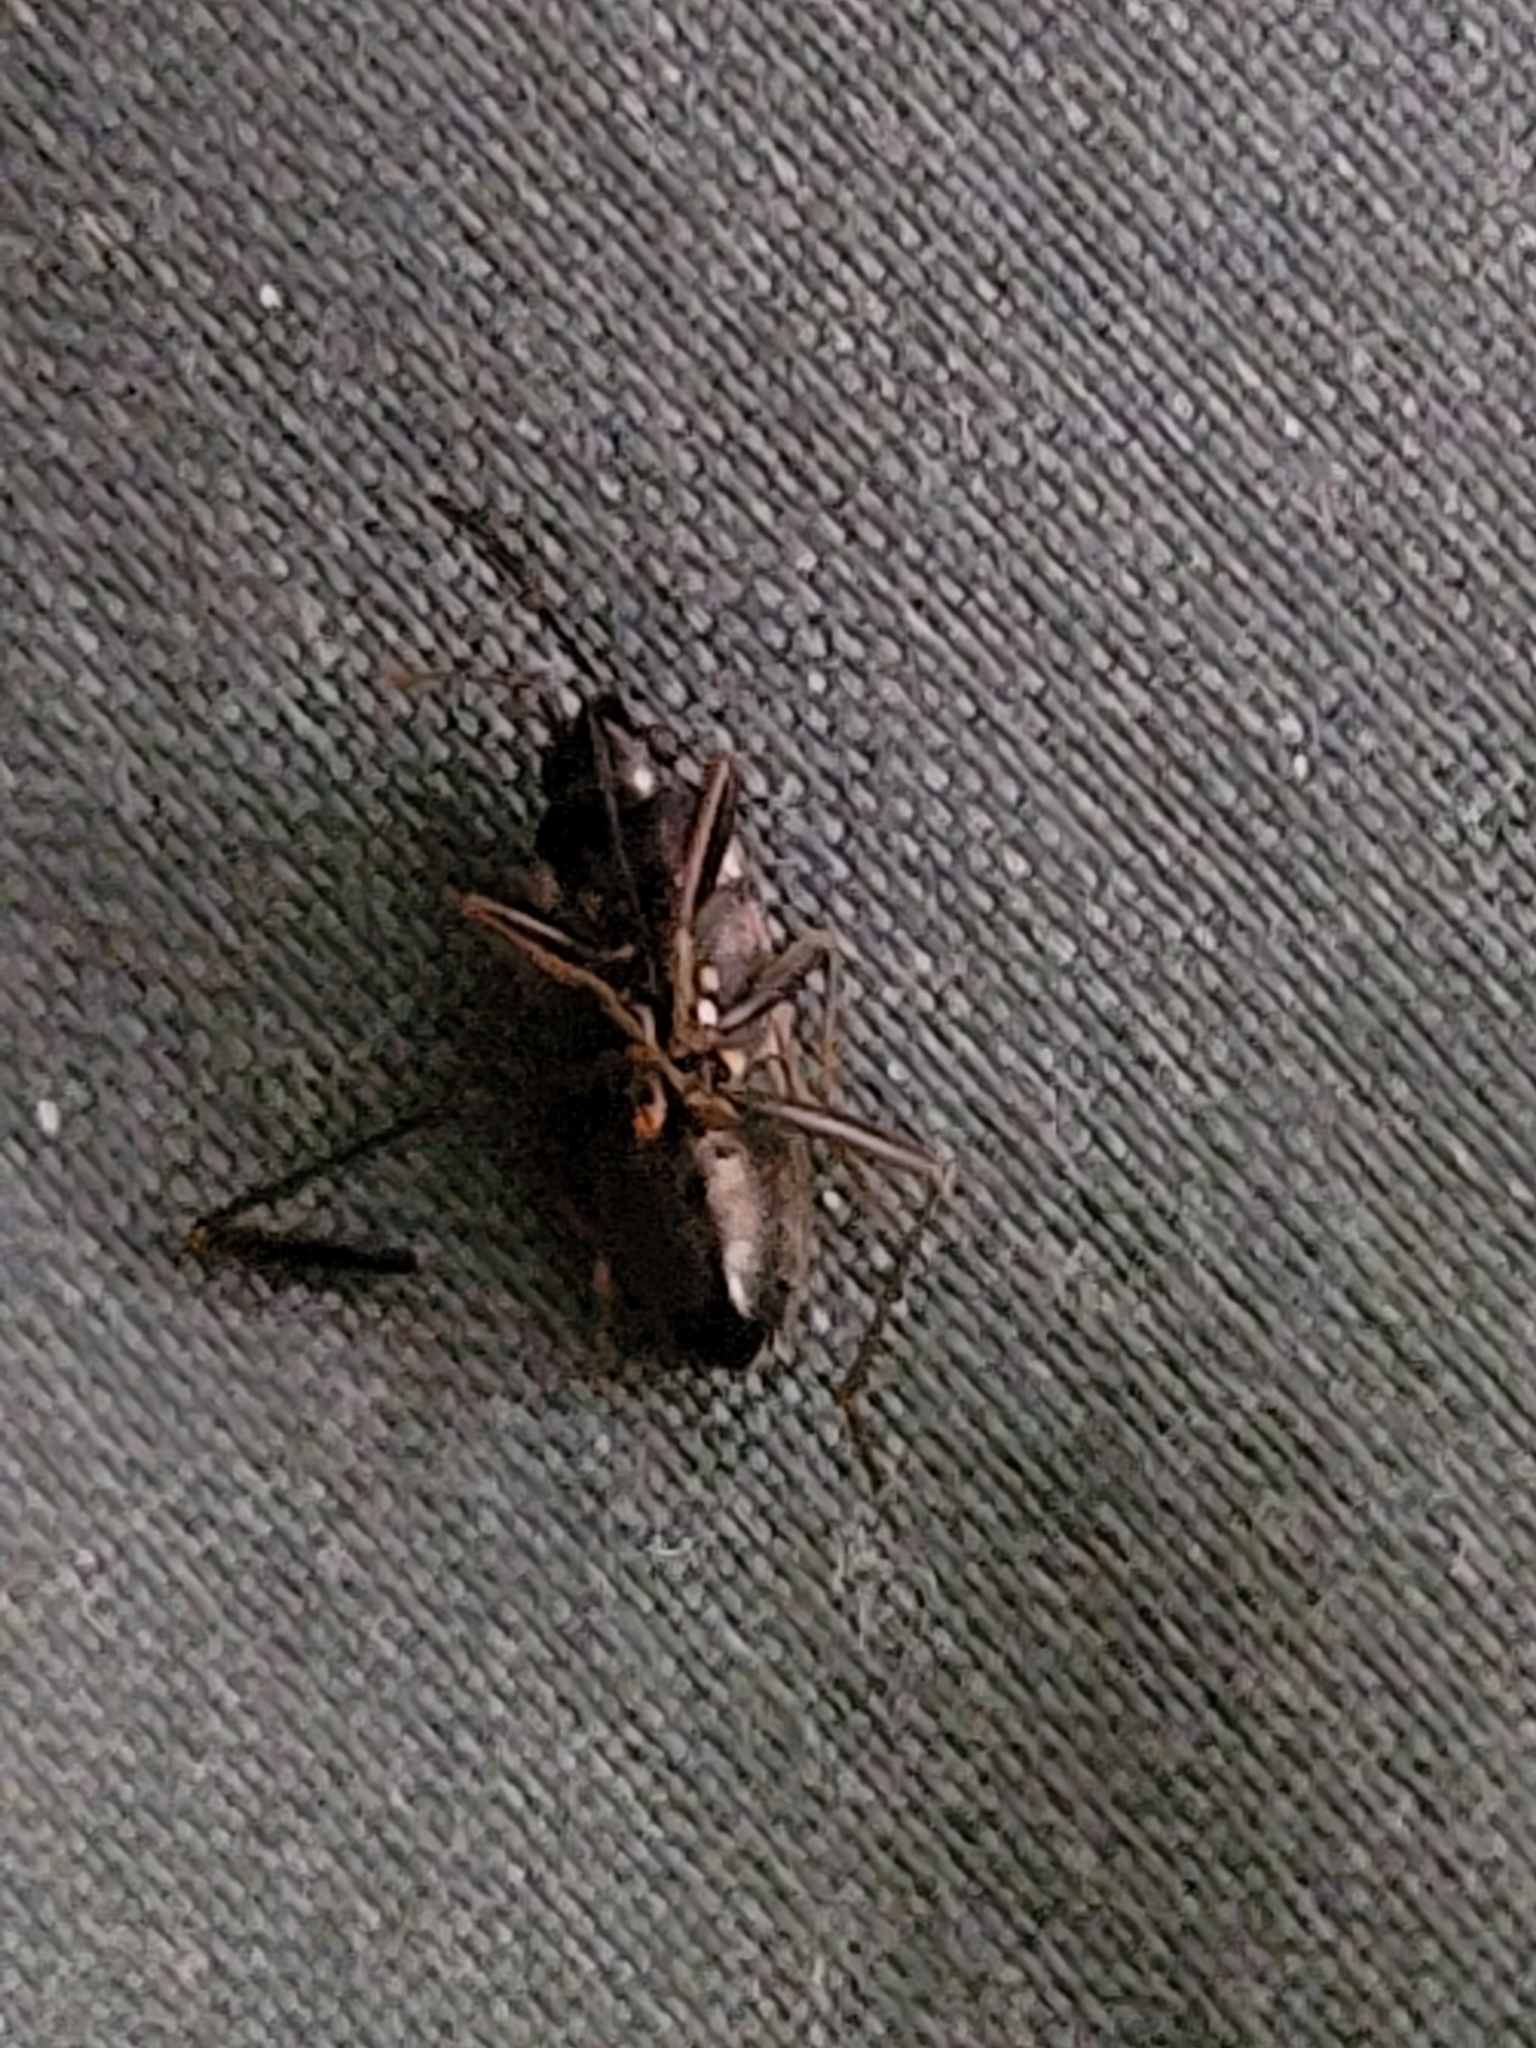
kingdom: Animalia
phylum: Arthropoda
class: Insecta
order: Hemiptera
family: Rhyparochromidae
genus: Rhyparochromus
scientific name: Rhyparochromus vulgaris
